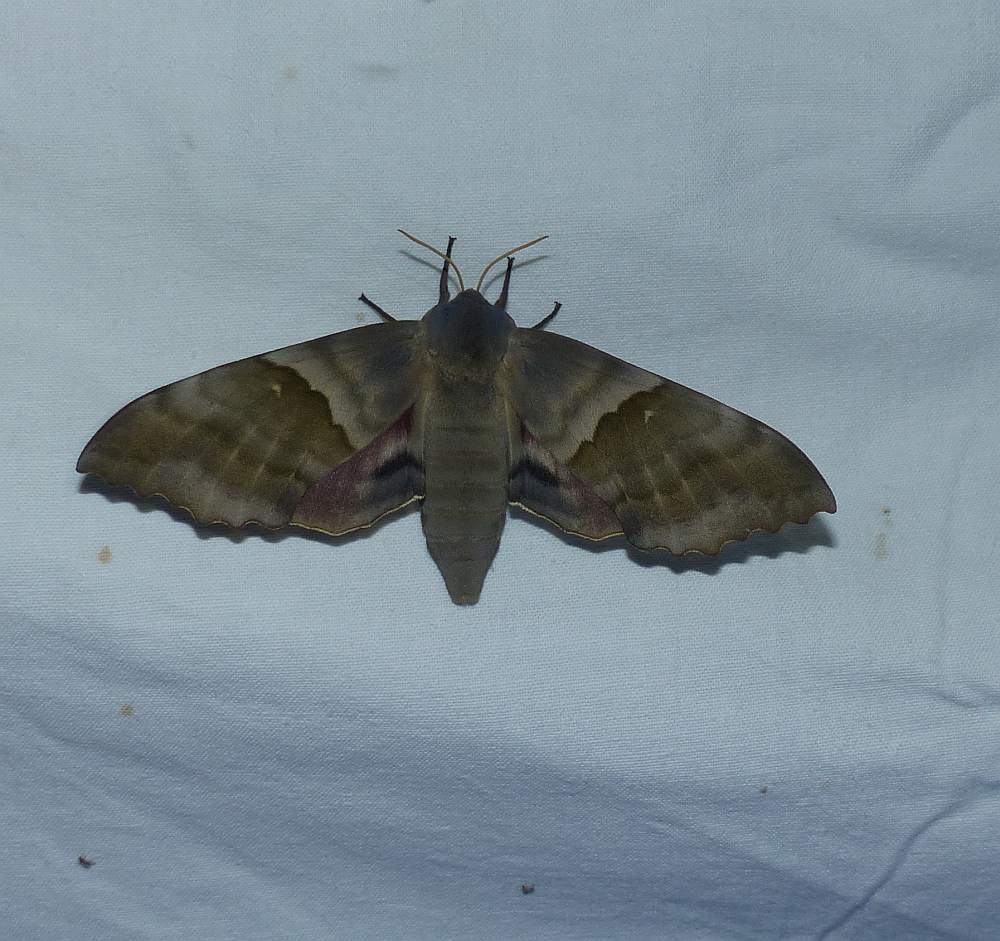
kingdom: Animalia
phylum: Arthropoda
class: Insecta
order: Lepidoptera
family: Sphingidae
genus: Pachysphinx
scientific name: Pachysphinx modesta
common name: Big poplar sphinx
